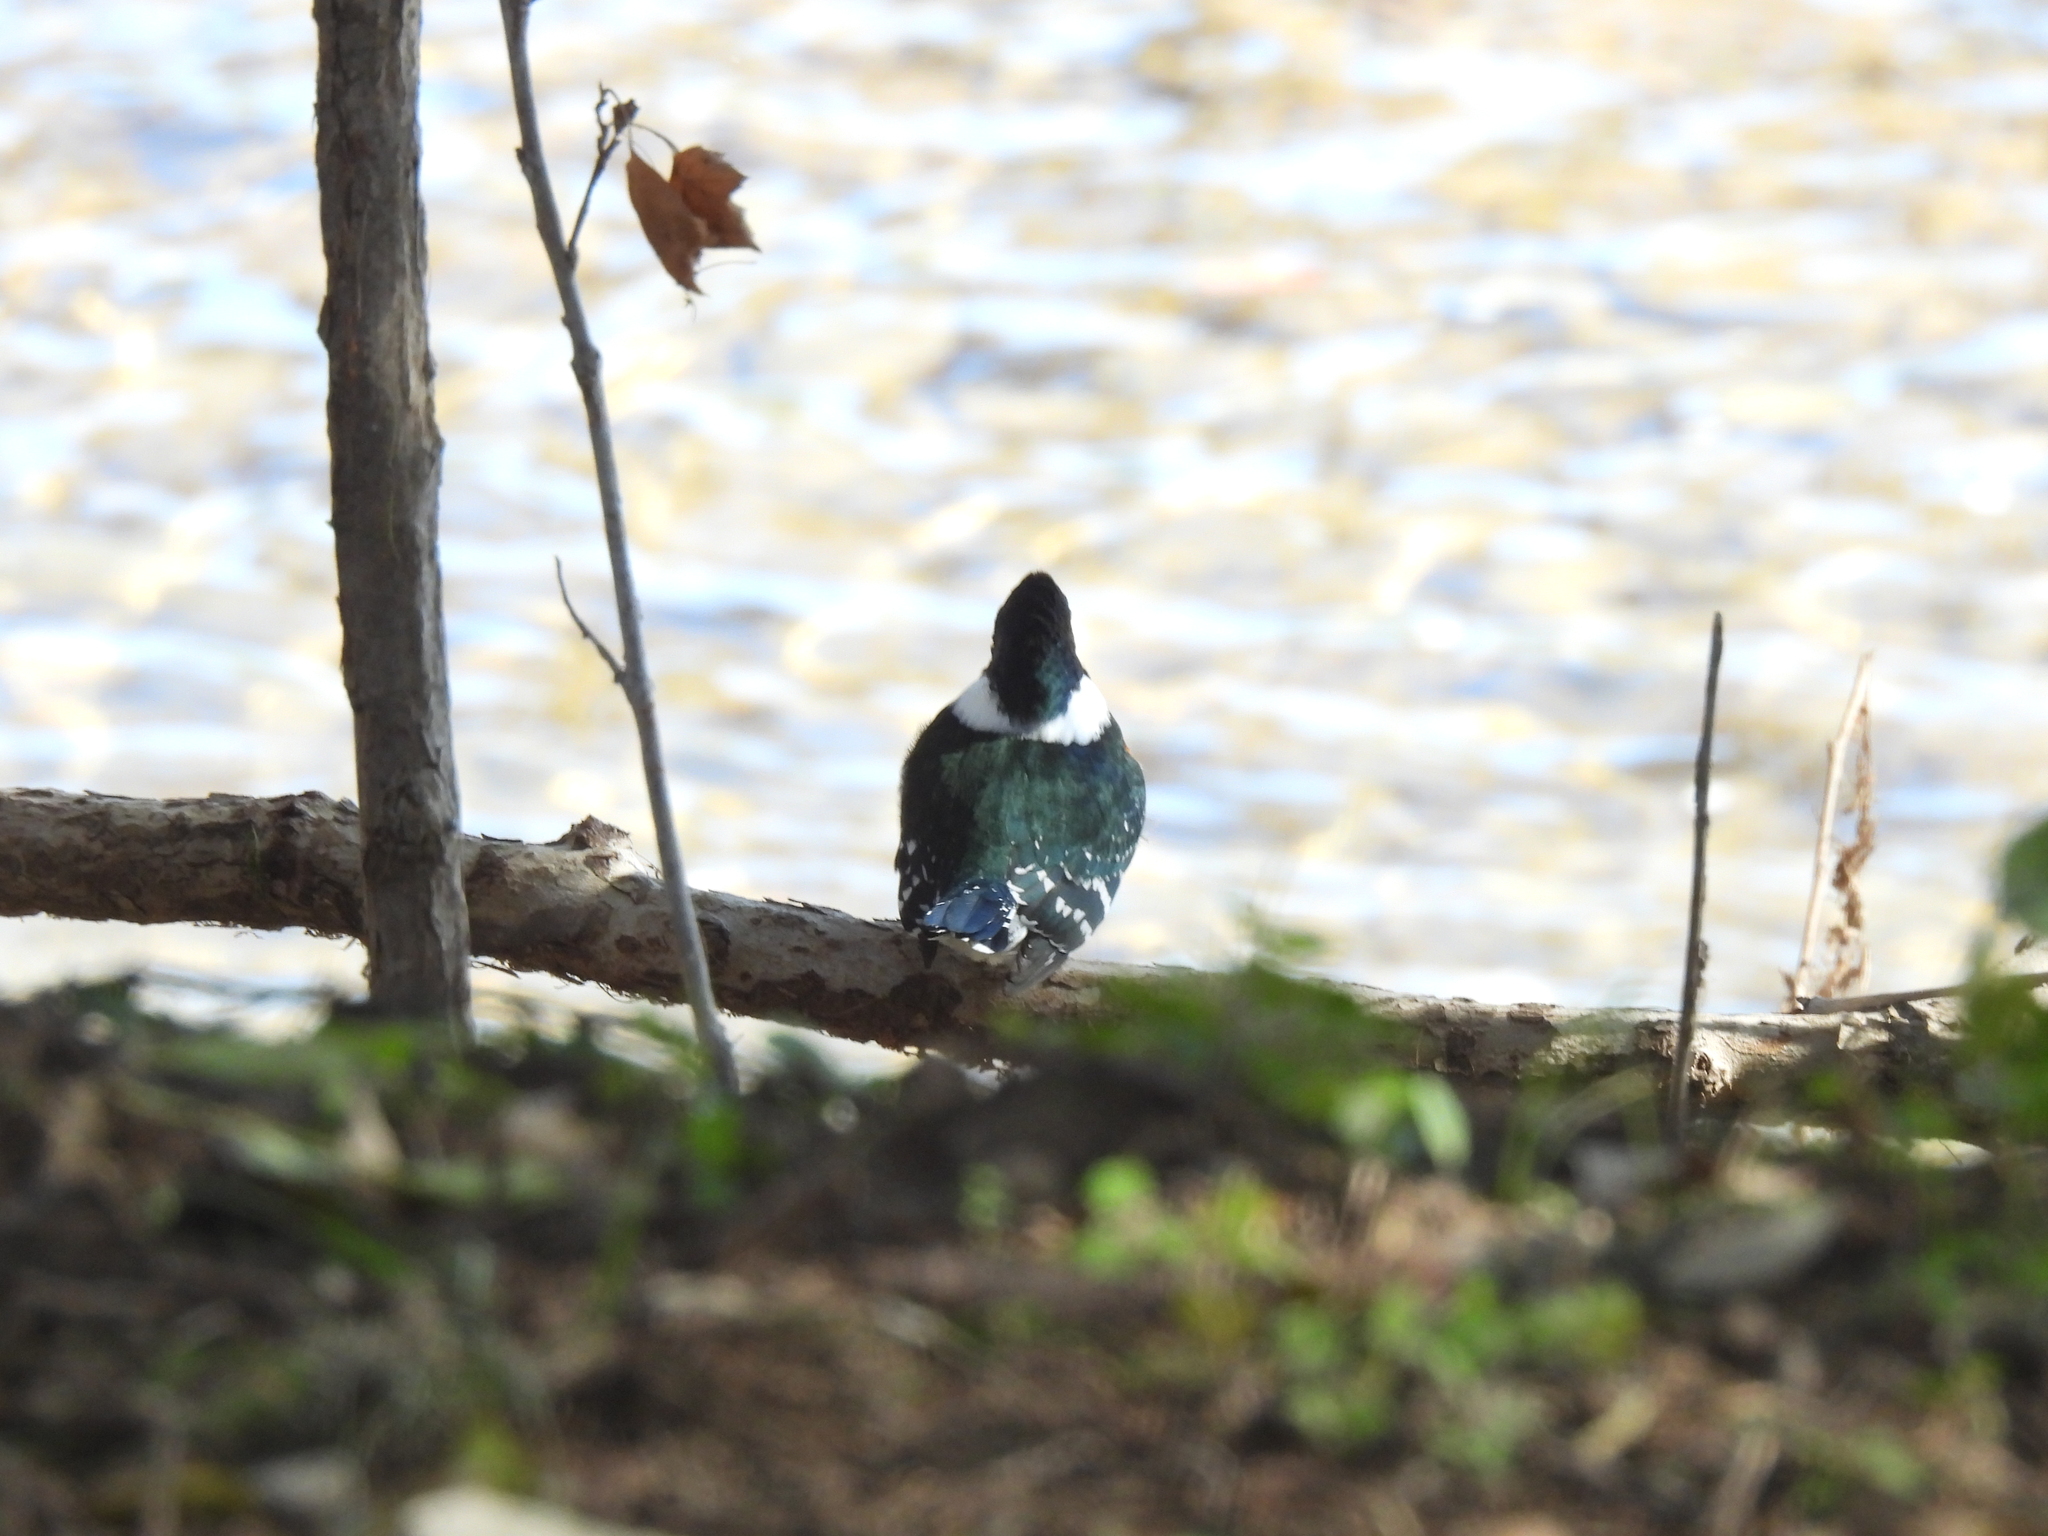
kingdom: Animalia
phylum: Chordata
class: Aves
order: Coraciiformes
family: Alcedinidae
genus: Chloroceryle
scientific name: Chloroceryle americana
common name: Green kingfisher
